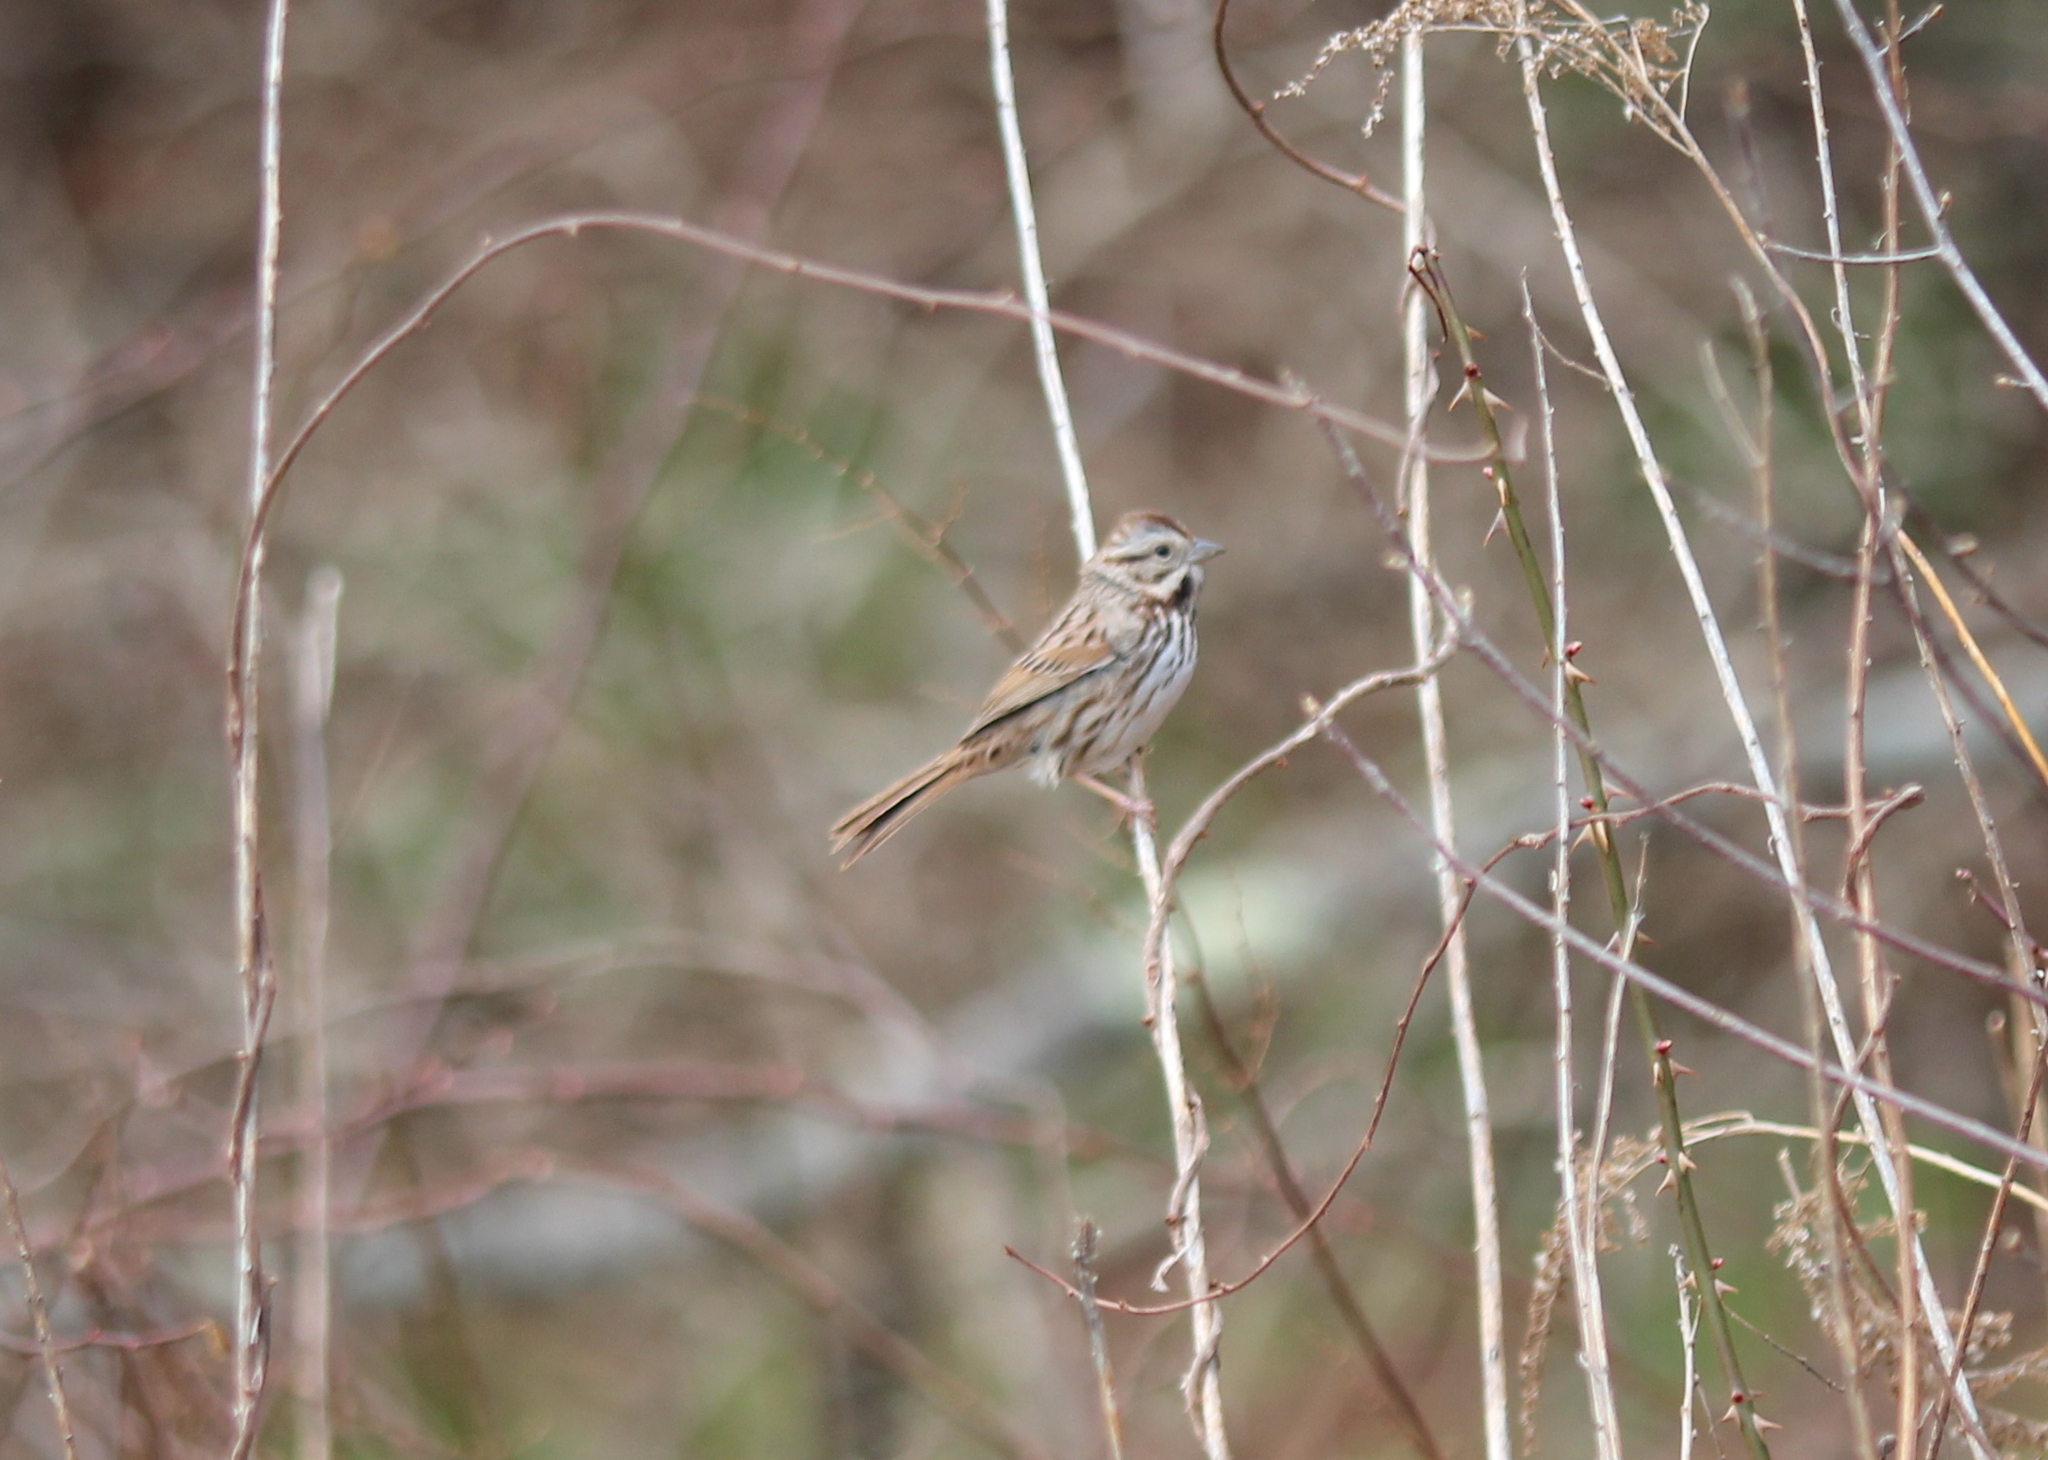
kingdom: Animalia
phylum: Chordata
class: Aves
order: Passeriformes
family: Passerellidae
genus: Melospiza
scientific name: Melospiza melodia
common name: Song sparrow
